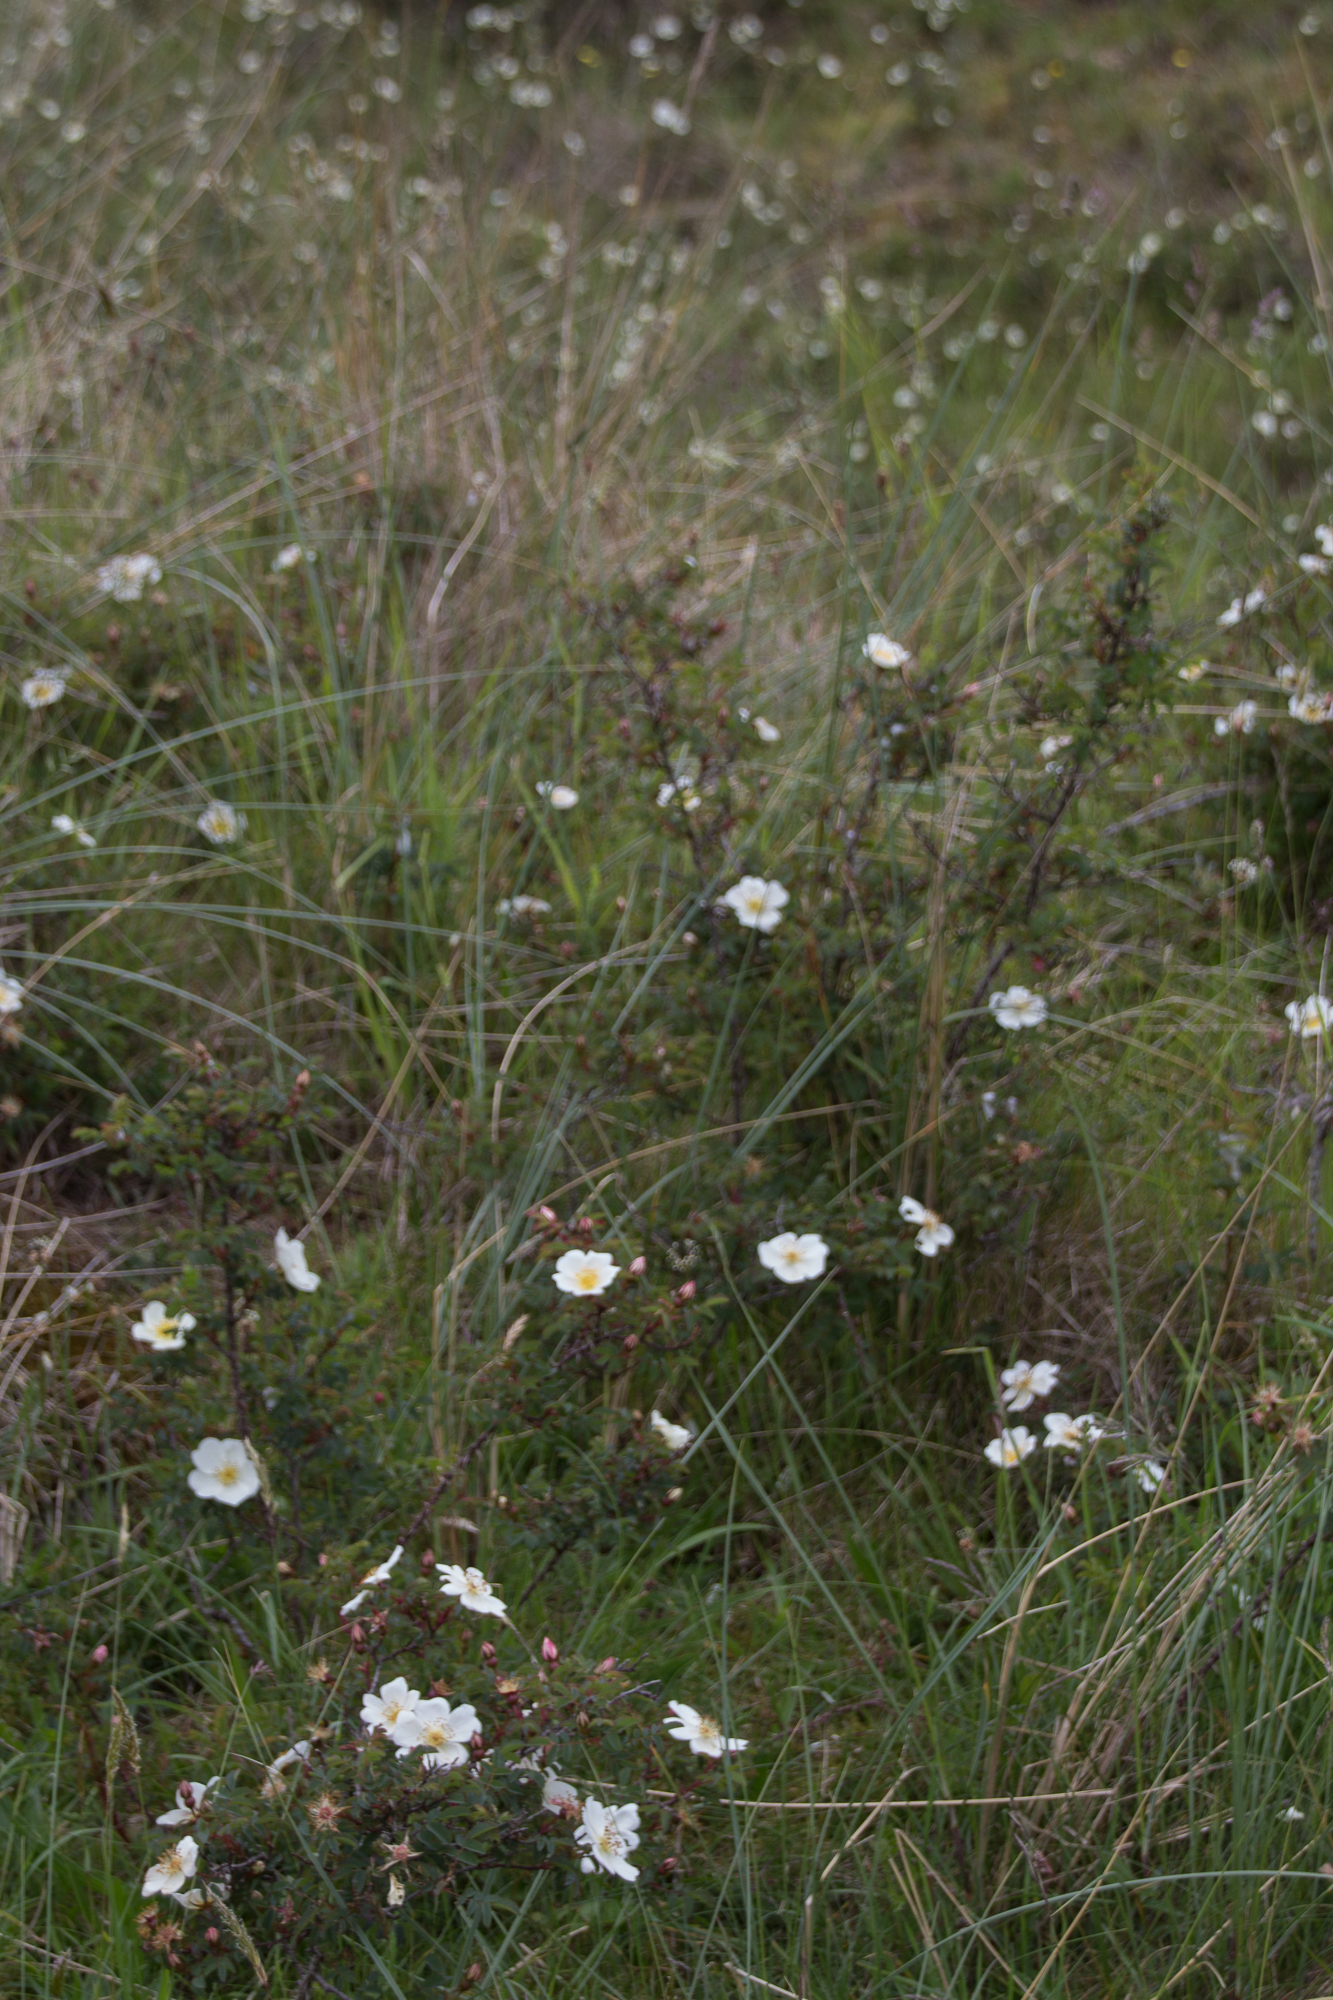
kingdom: Plantae
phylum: Tracheophyta
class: Magnoliopsida
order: Rosales
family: Rosaceae
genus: Rosa
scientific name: Rosa spinosissima
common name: Burnet rose
